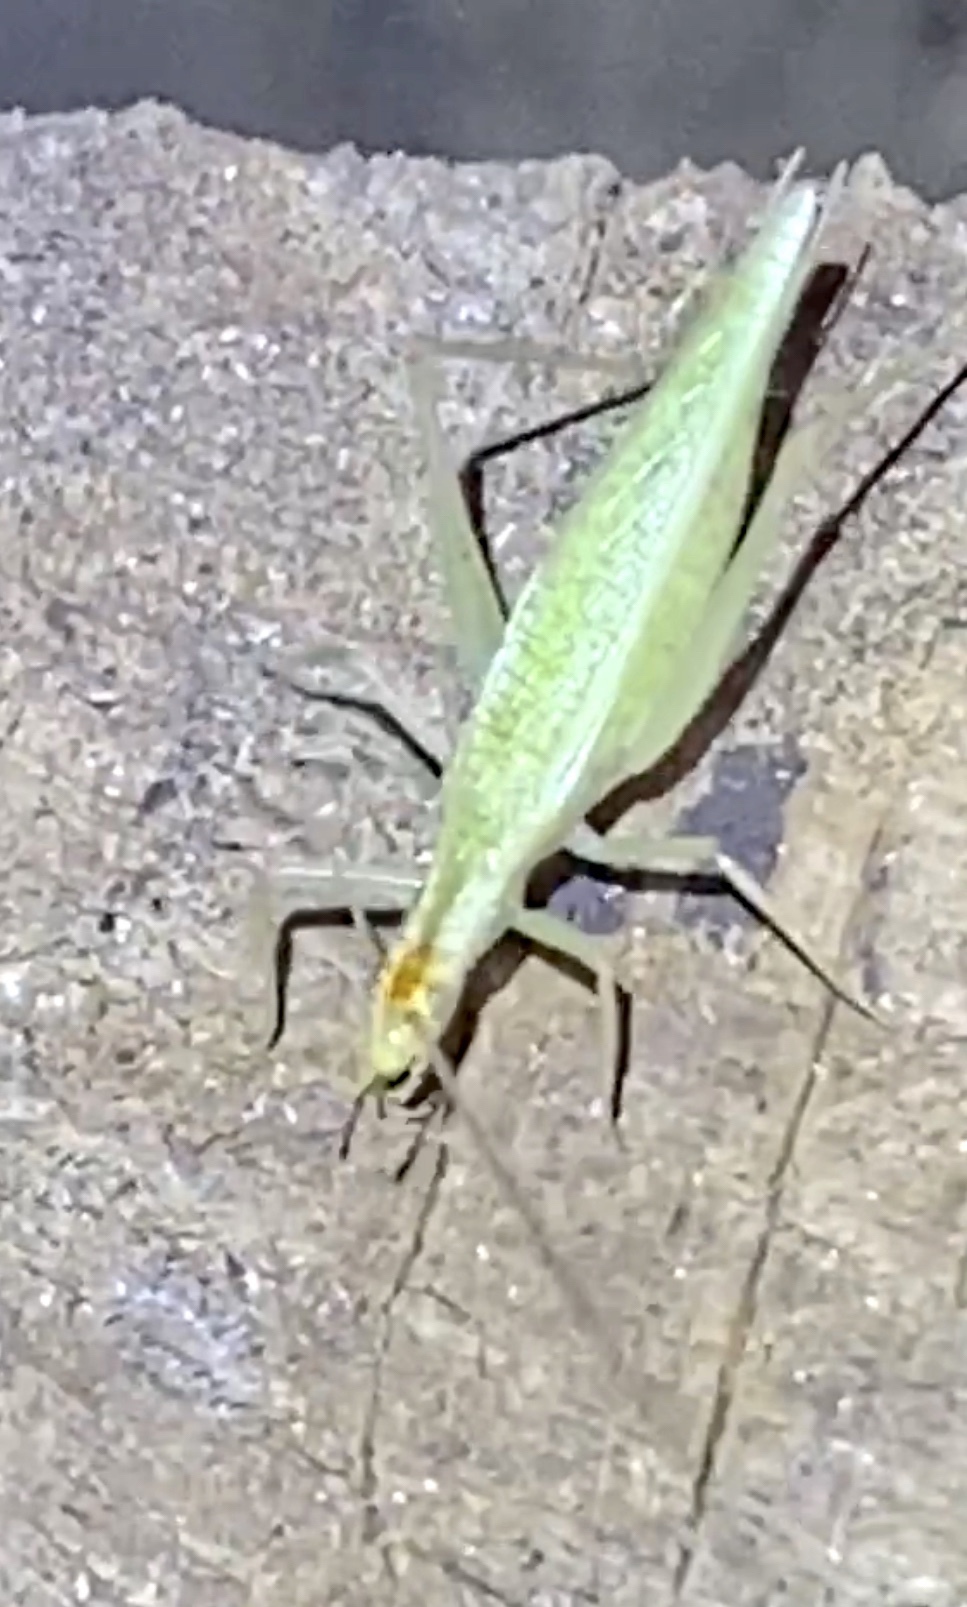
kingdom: Animalia
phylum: Arthropoda
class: Insecta
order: Orthoptera
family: Gryllidae
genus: Oecanthus
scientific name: Oecanthus niveus
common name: Narrow-winged tree cricket
